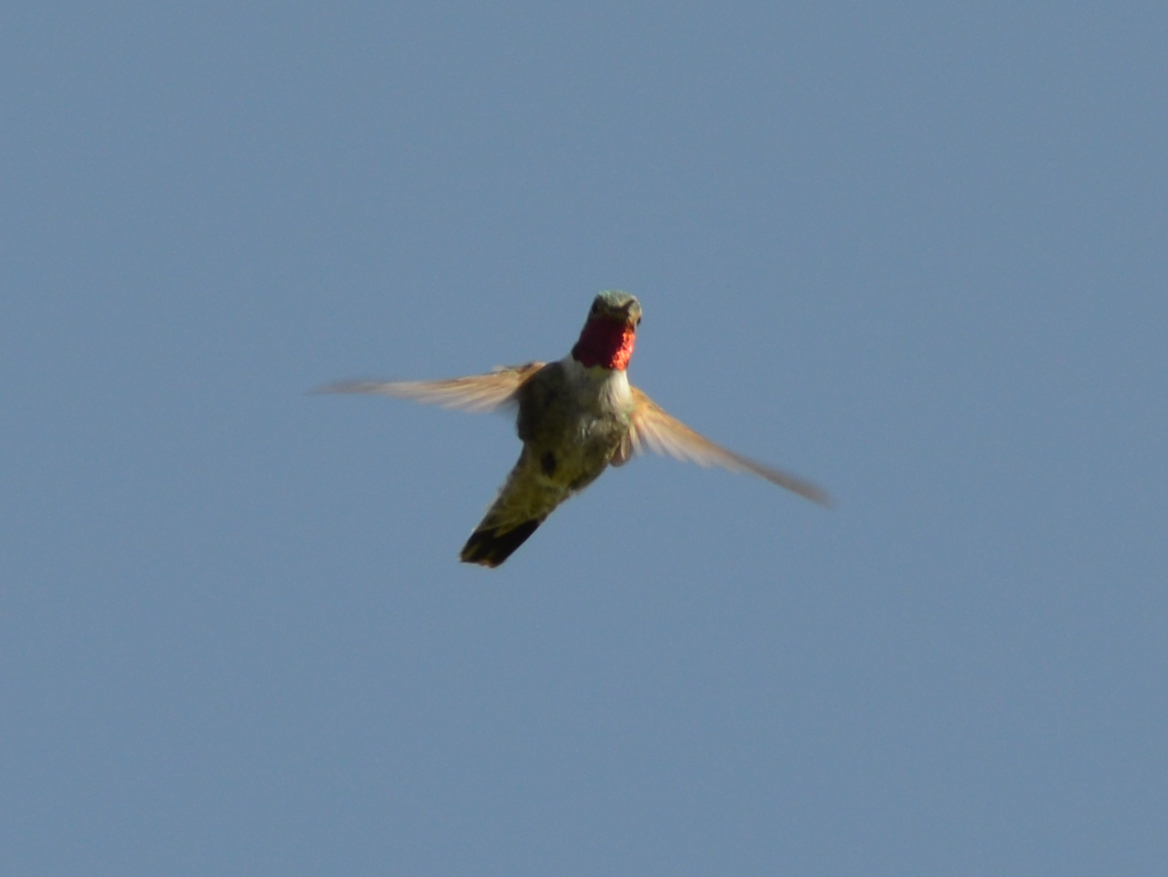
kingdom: Animalia
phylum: Chordata
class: Aves
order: Apodiformes
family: Trochilidae
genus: Selasphorus
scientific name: Selasphorus platycercus
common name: Broad-tailed hummingbird
